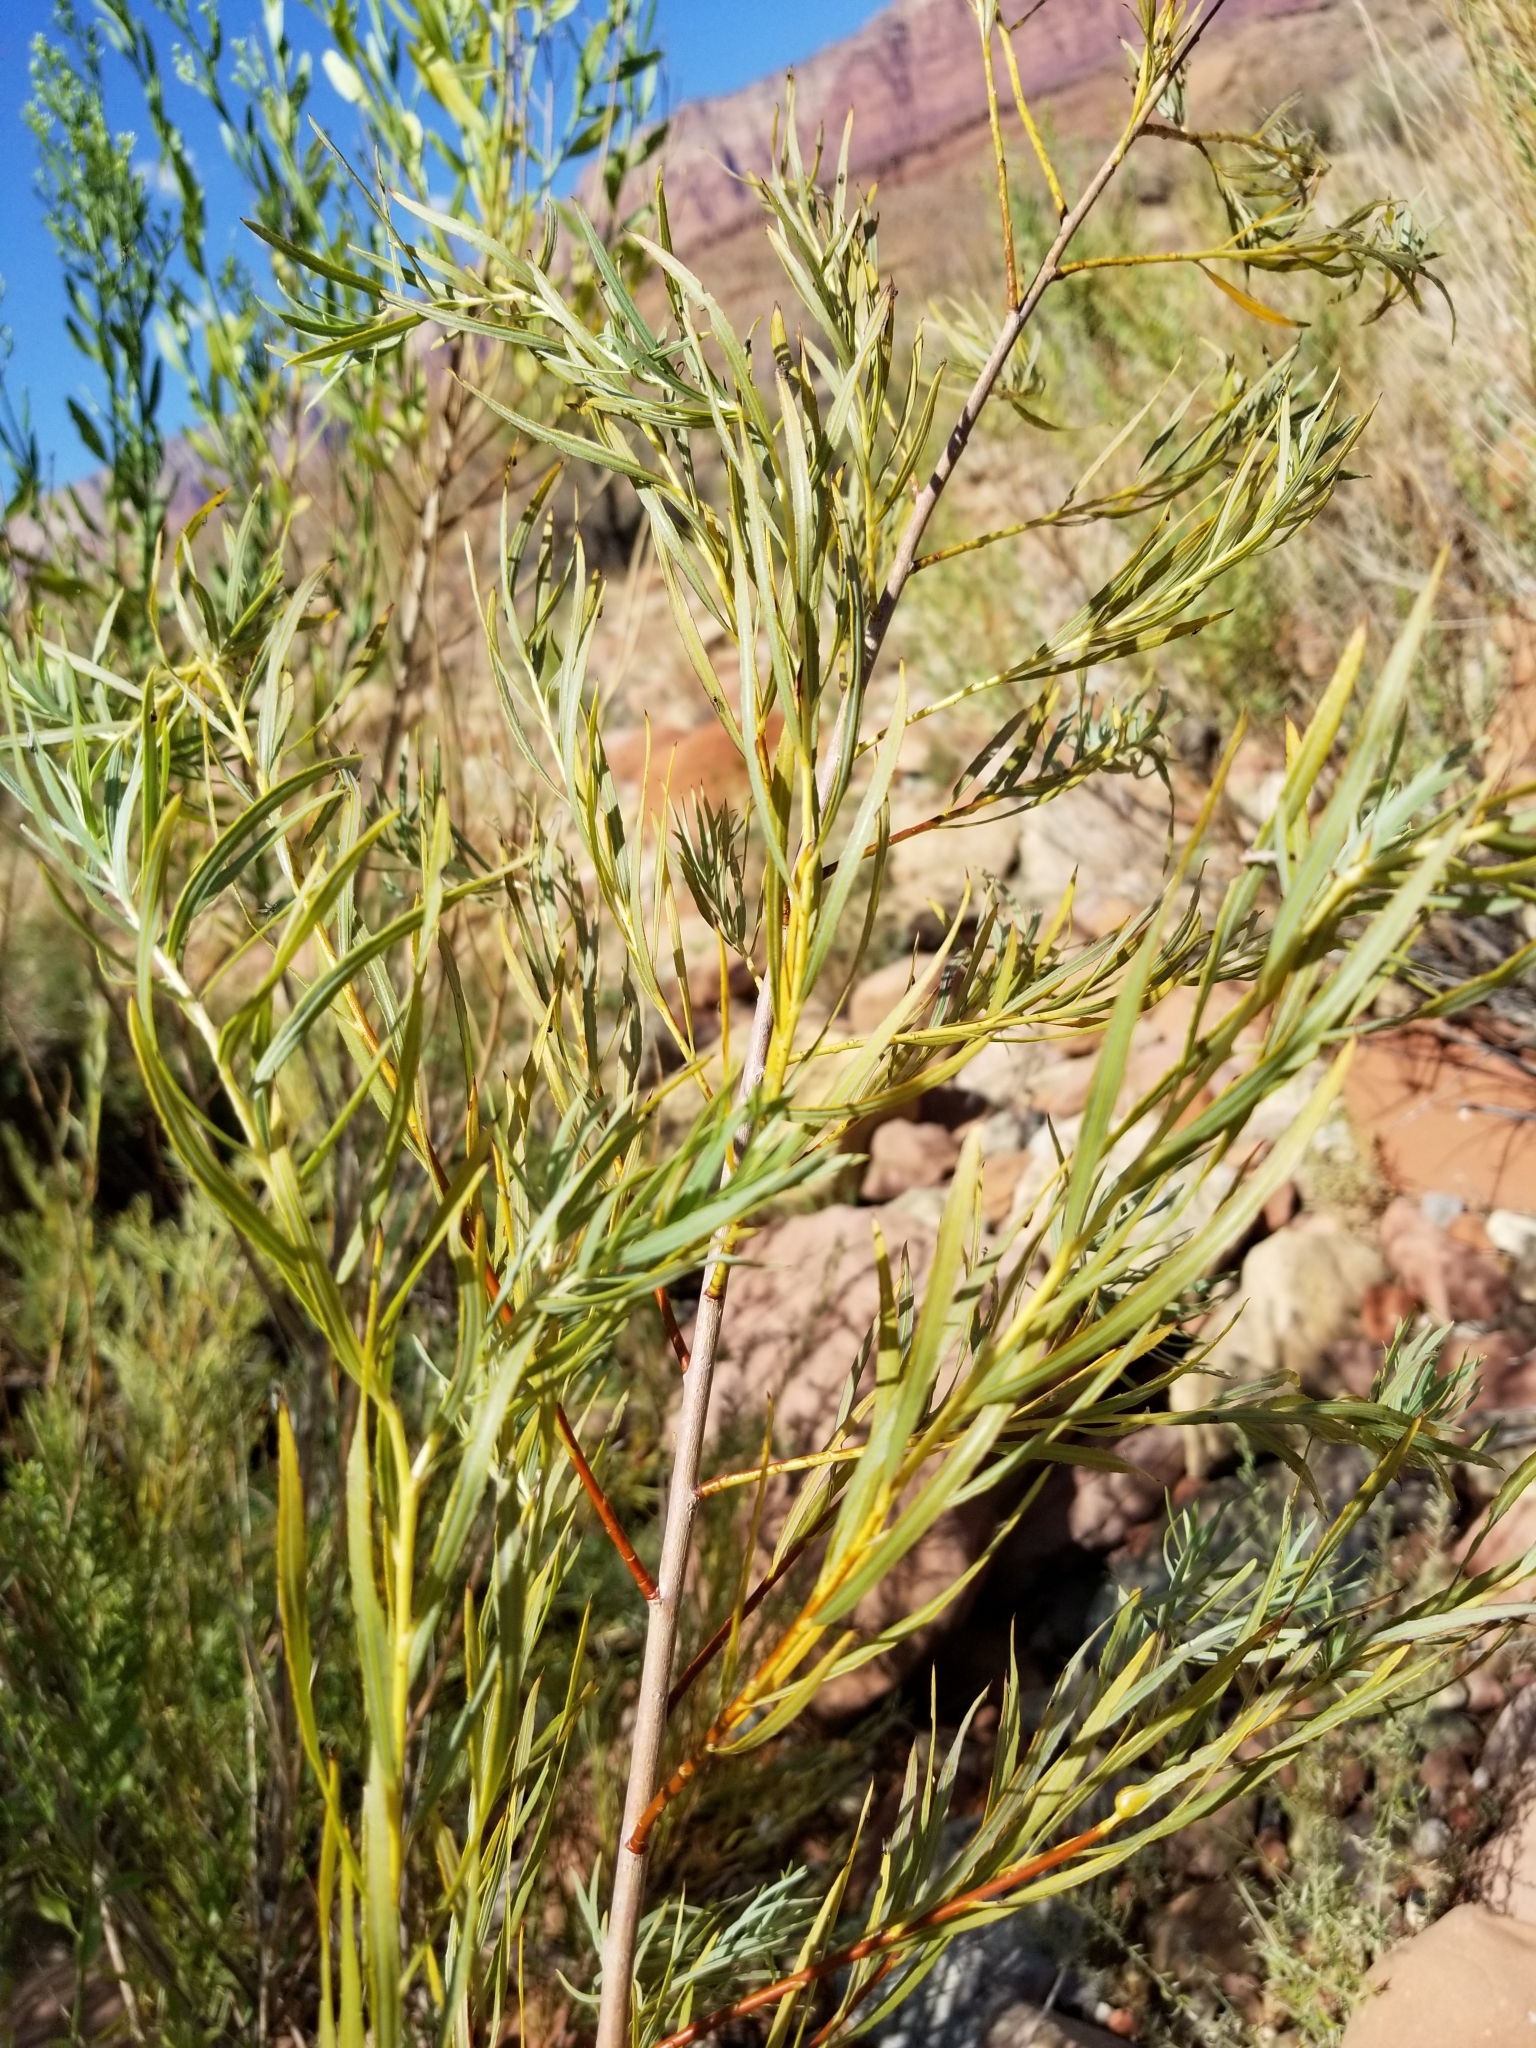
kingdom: Plantae
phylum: Tracheophyta
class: Magnoliopsida
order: Malpighiales
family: Salicaceae
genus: Salix
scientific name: Salix exigua
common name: Coyote willow
